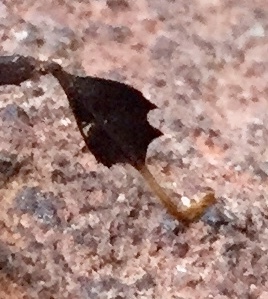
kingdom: Animalia
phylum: Arthropoda
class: Insecta
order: Hemiptera
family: Coreidae
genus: Leptoglossus
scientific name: Leptoglossus oppositus
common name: Northern leaf-footed bug
